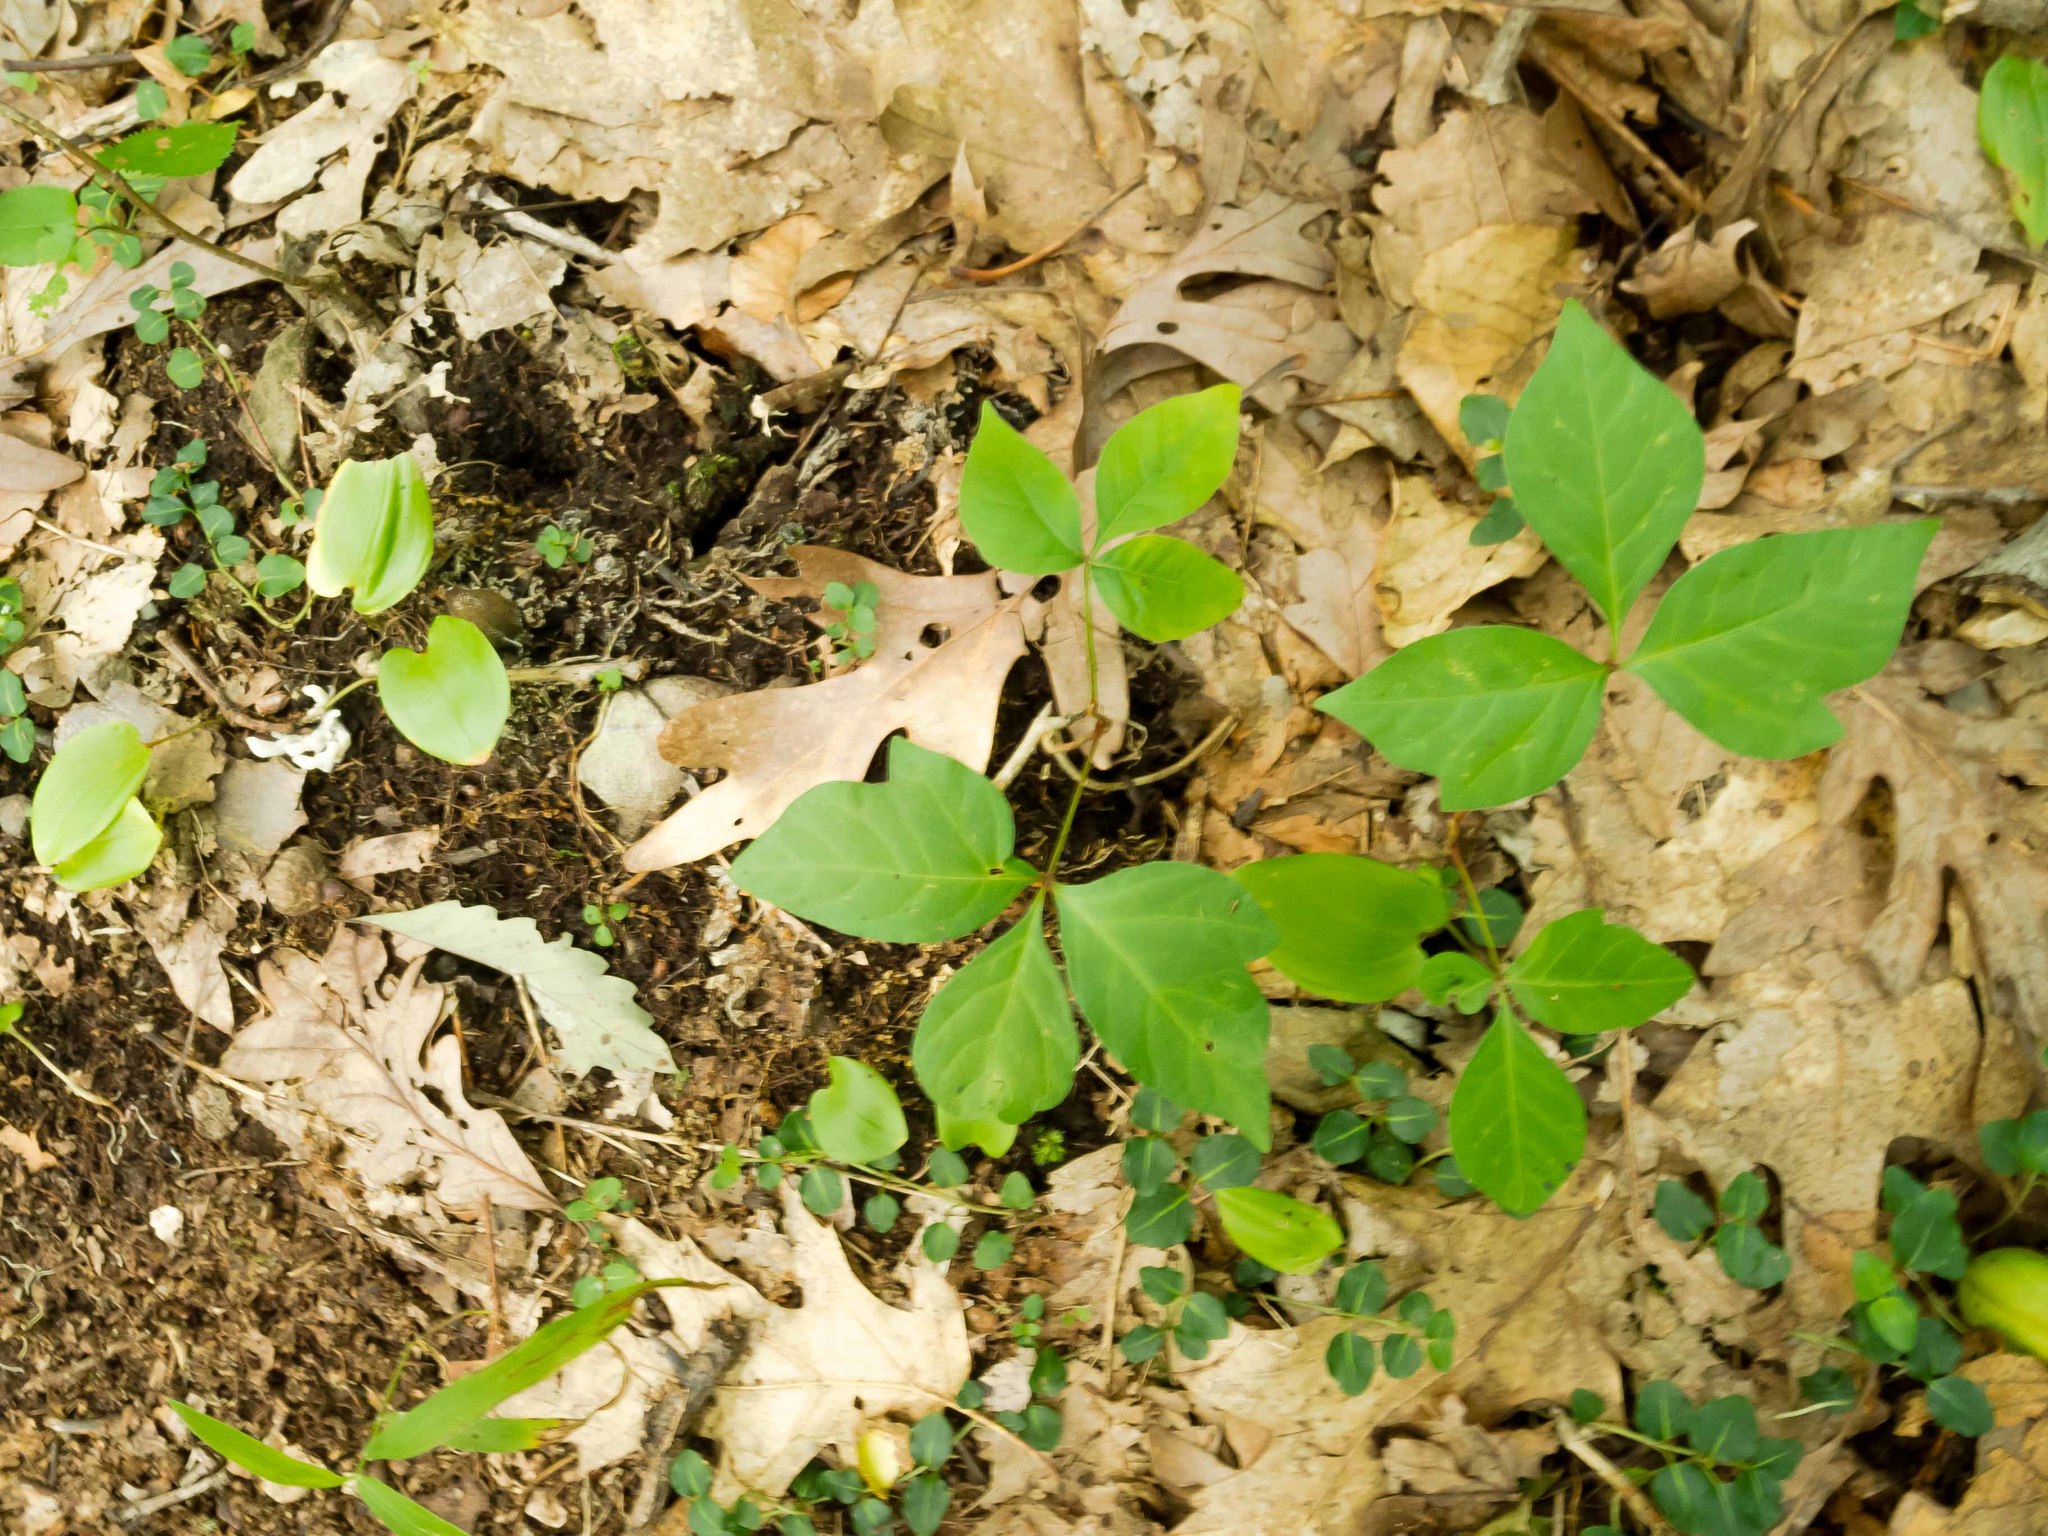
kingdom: Plantae
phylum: Tracheophyta
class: Magnoliopsida
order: Sapindales
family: Anacardiaceae
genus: Toxicodendron
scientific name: Toxicodendron radicans
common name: Poison ivy
